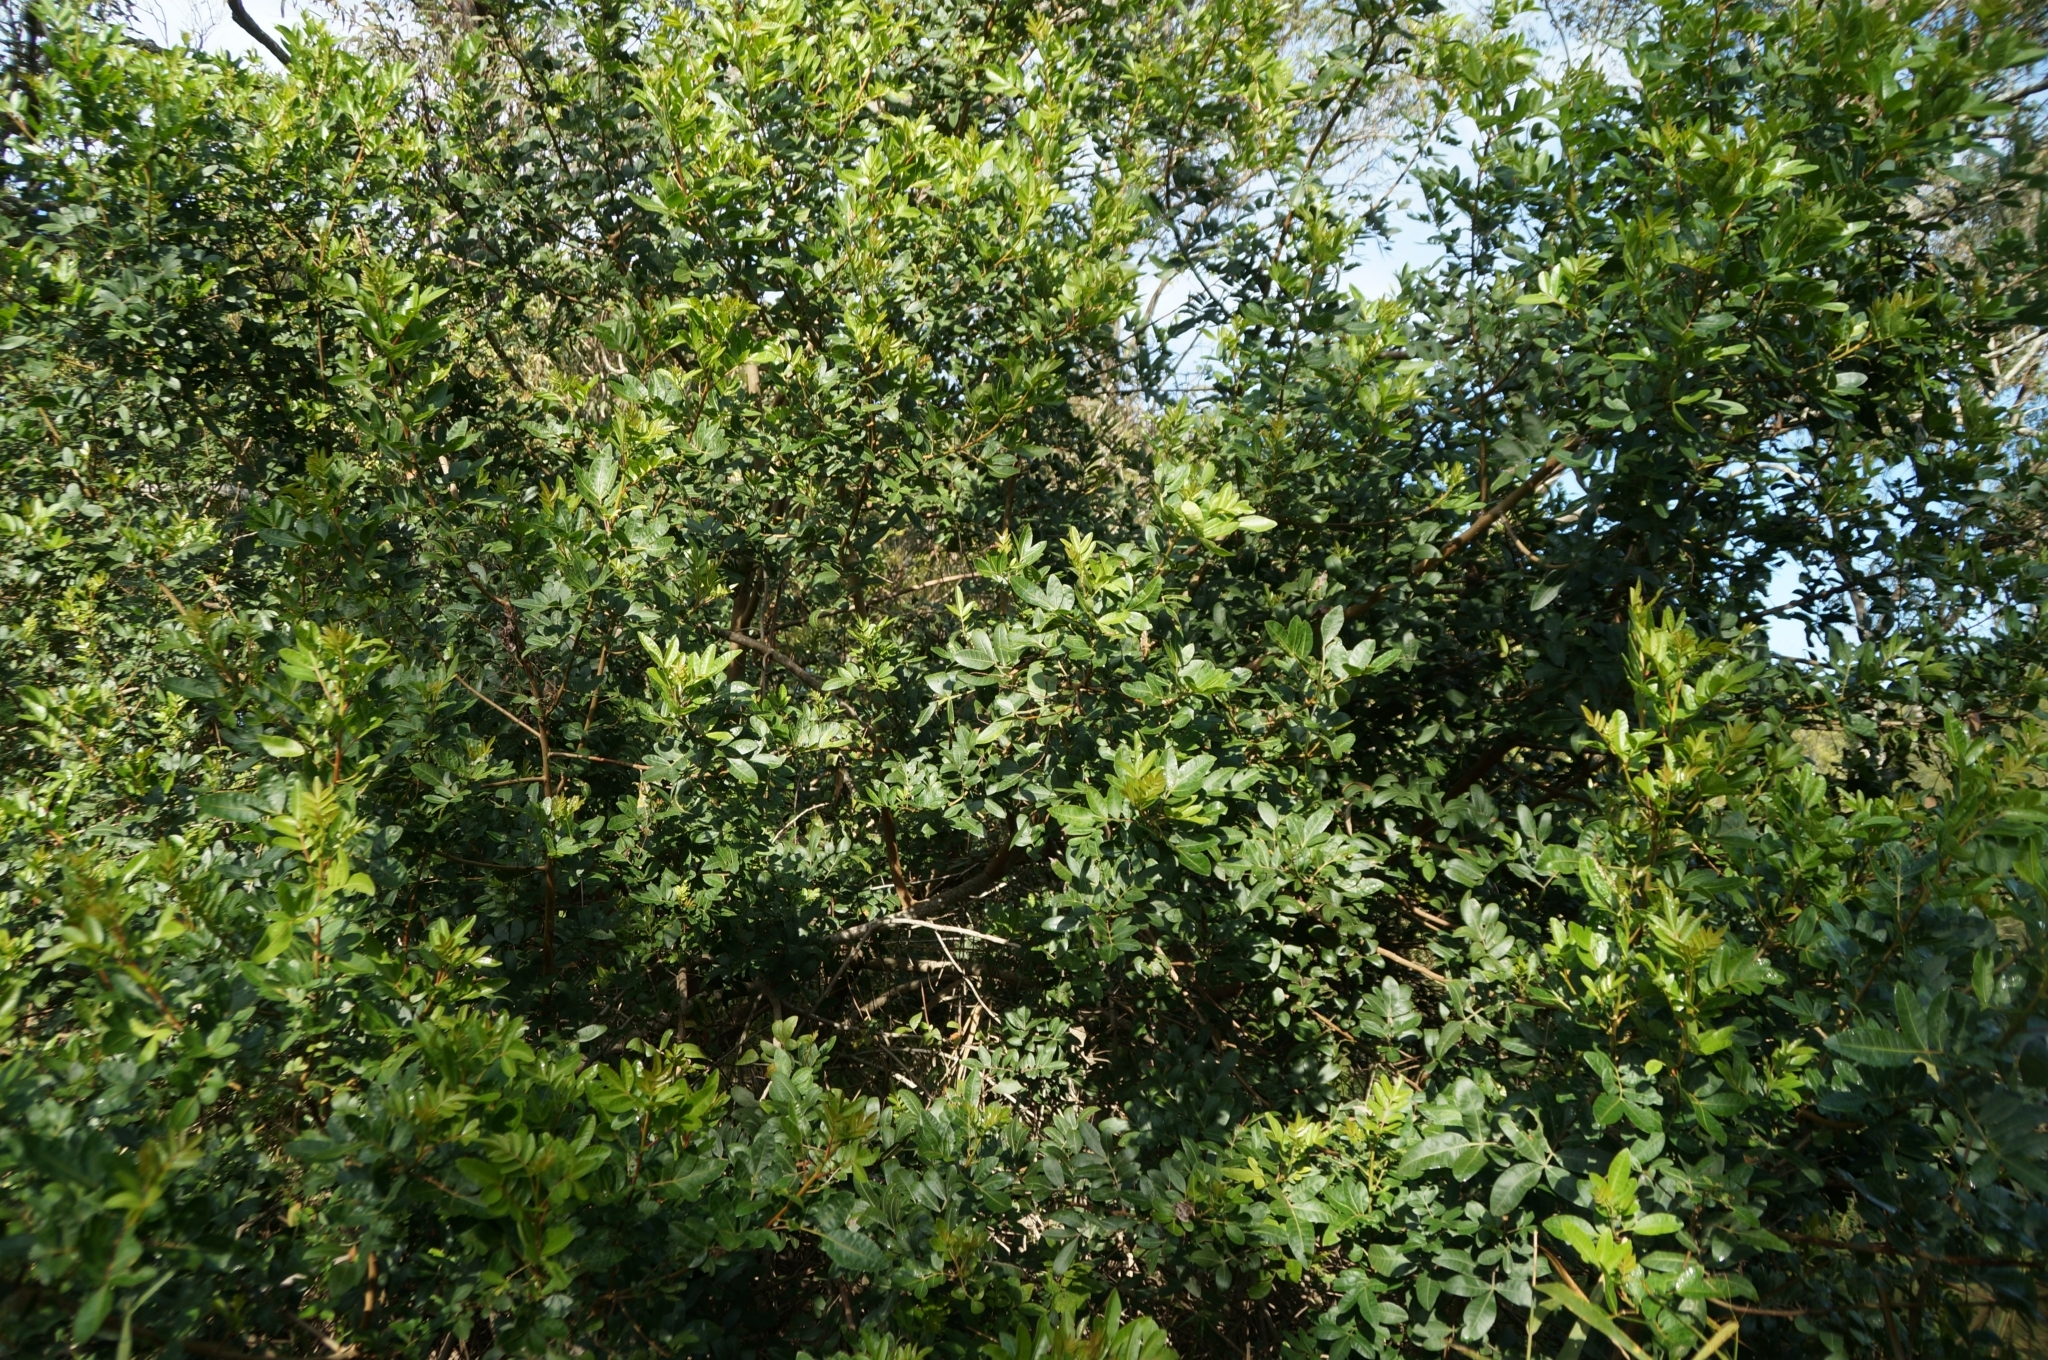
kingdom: Plantae
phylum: Tracheophyta
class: Magnoliopsida
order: Sapindales
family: Anacardiaceae
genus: Schinus
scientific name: Schinus terebinthifolia
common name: Brazilian peppertree
